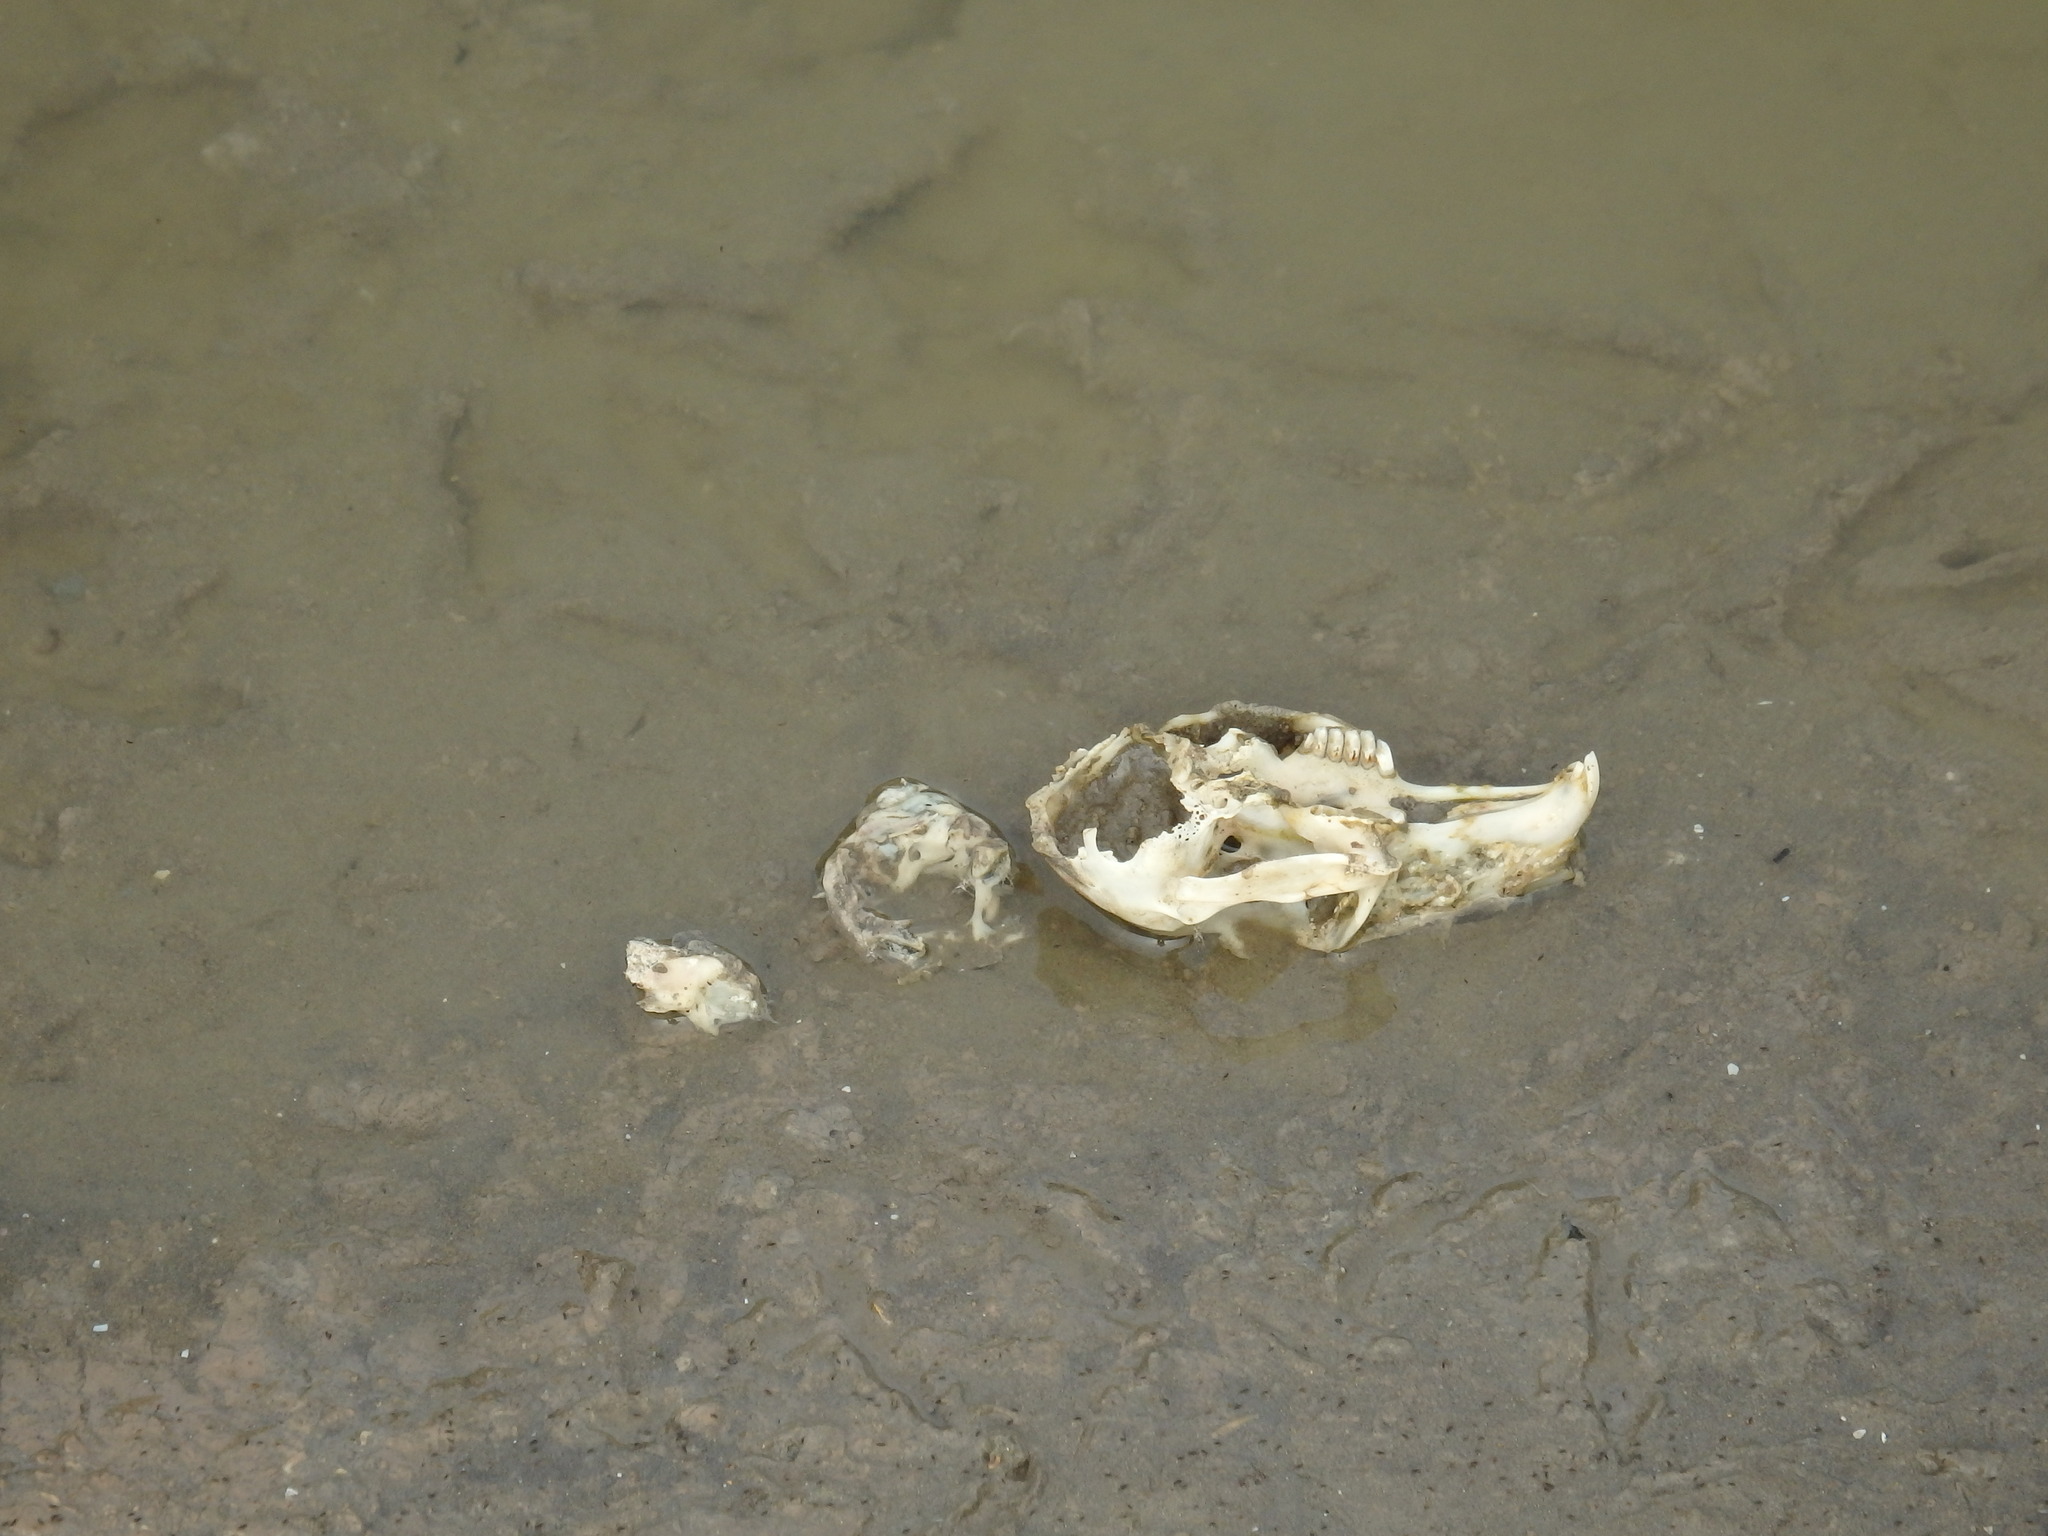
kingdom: Animalia
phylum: Chordata
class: Mammalia
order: Lagomorpha
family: Leporidae
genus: Oryctolagus
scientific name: Oryctolagus cuniculus
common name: European rabbit
